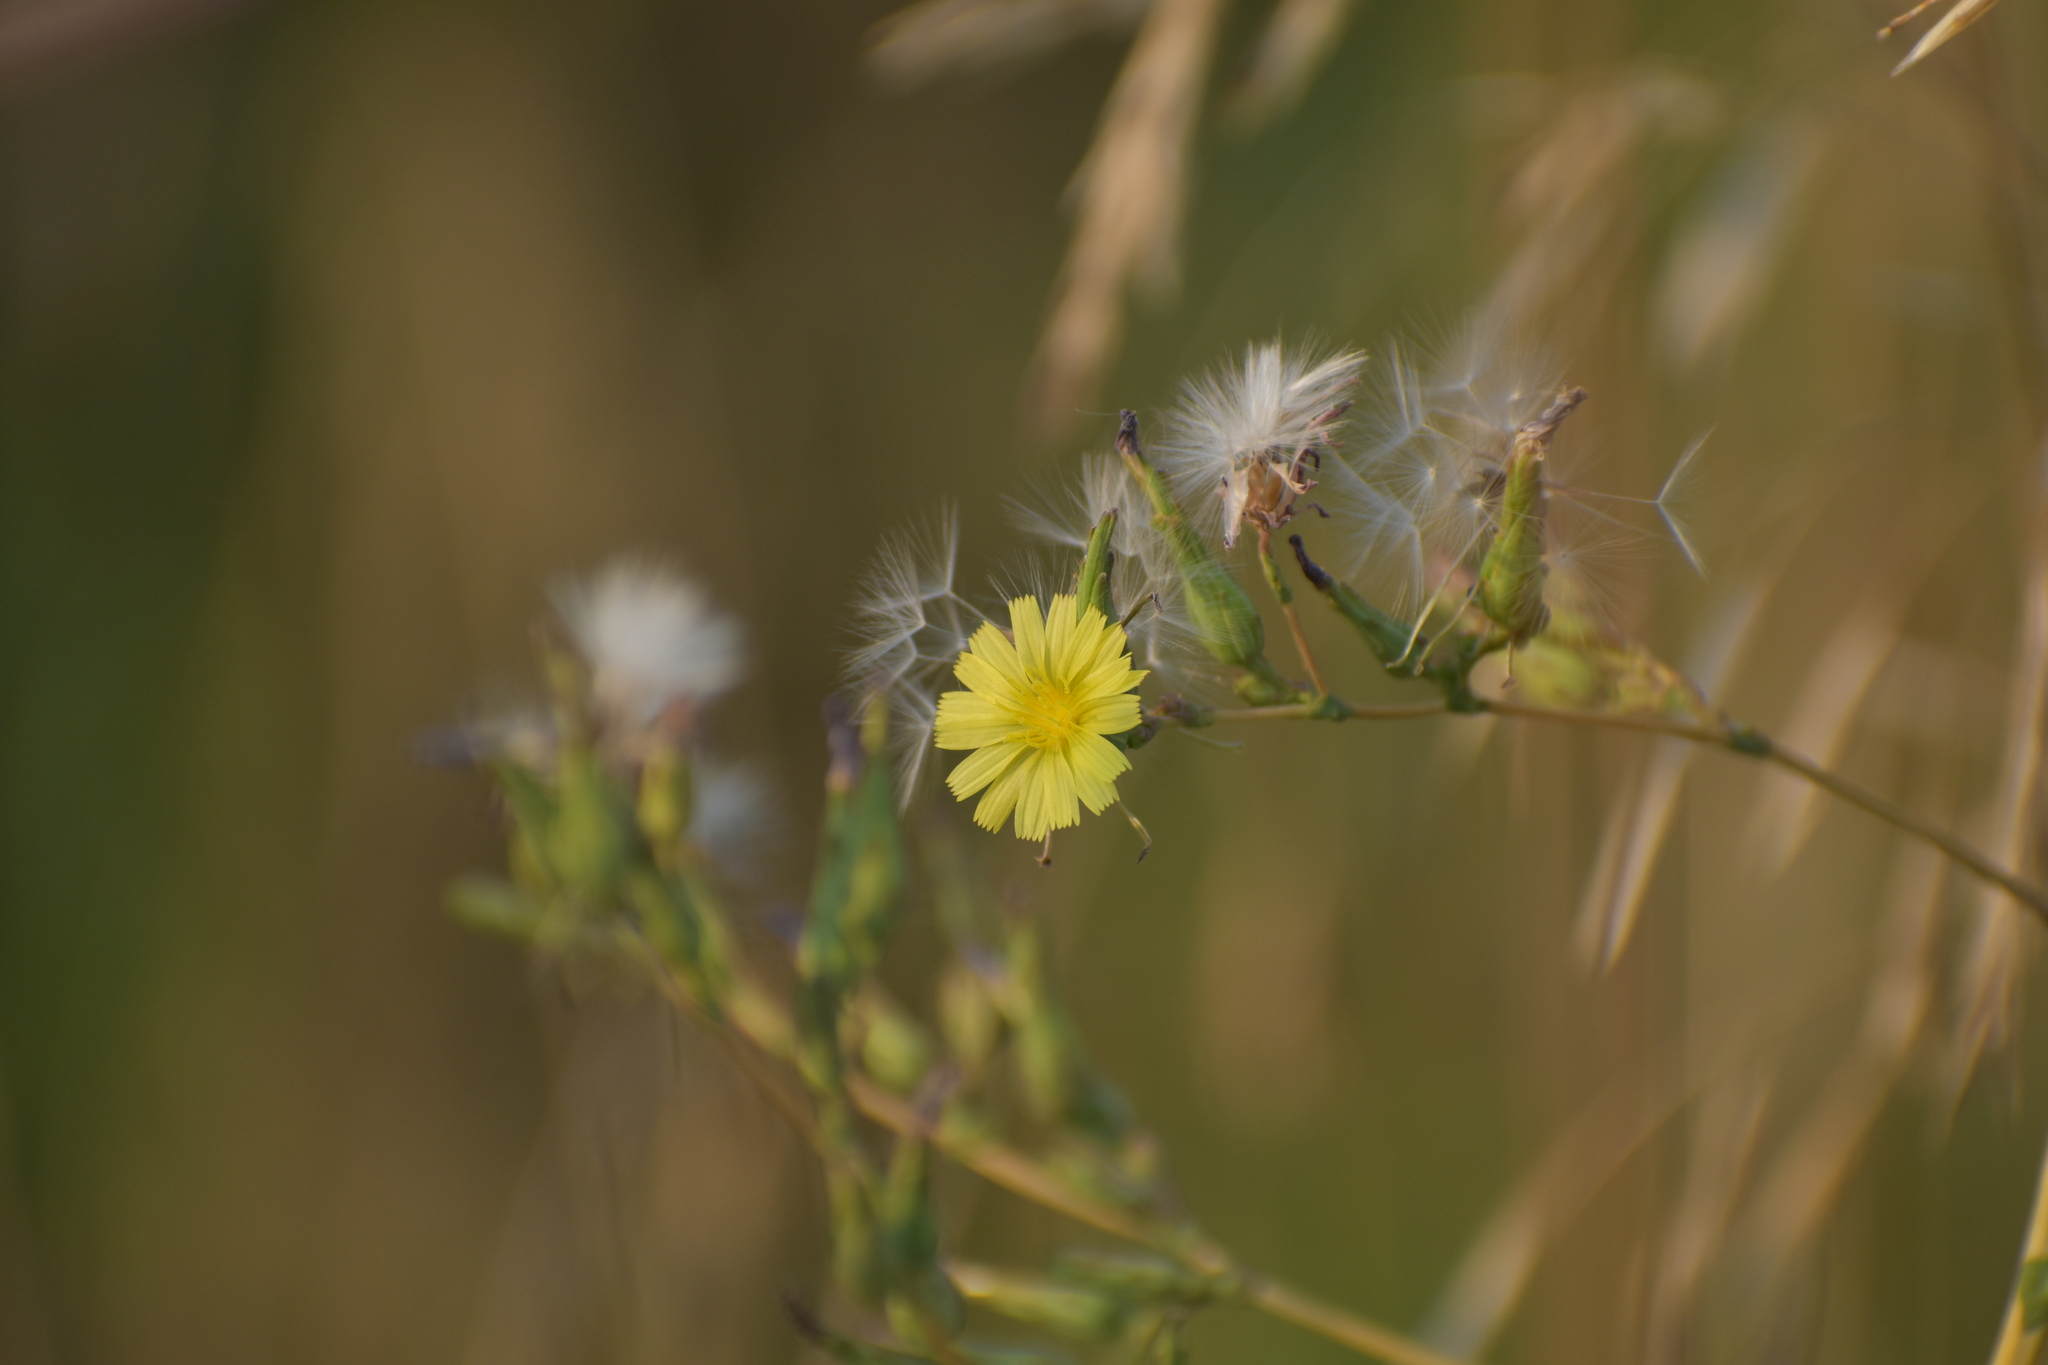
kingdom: Plantae
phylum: Tracheophyta
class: Magnoliopsida
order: Asterales
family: Asteraceae
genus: Lactuca
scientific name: Lactuca serriola
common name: Prickly lettuce
